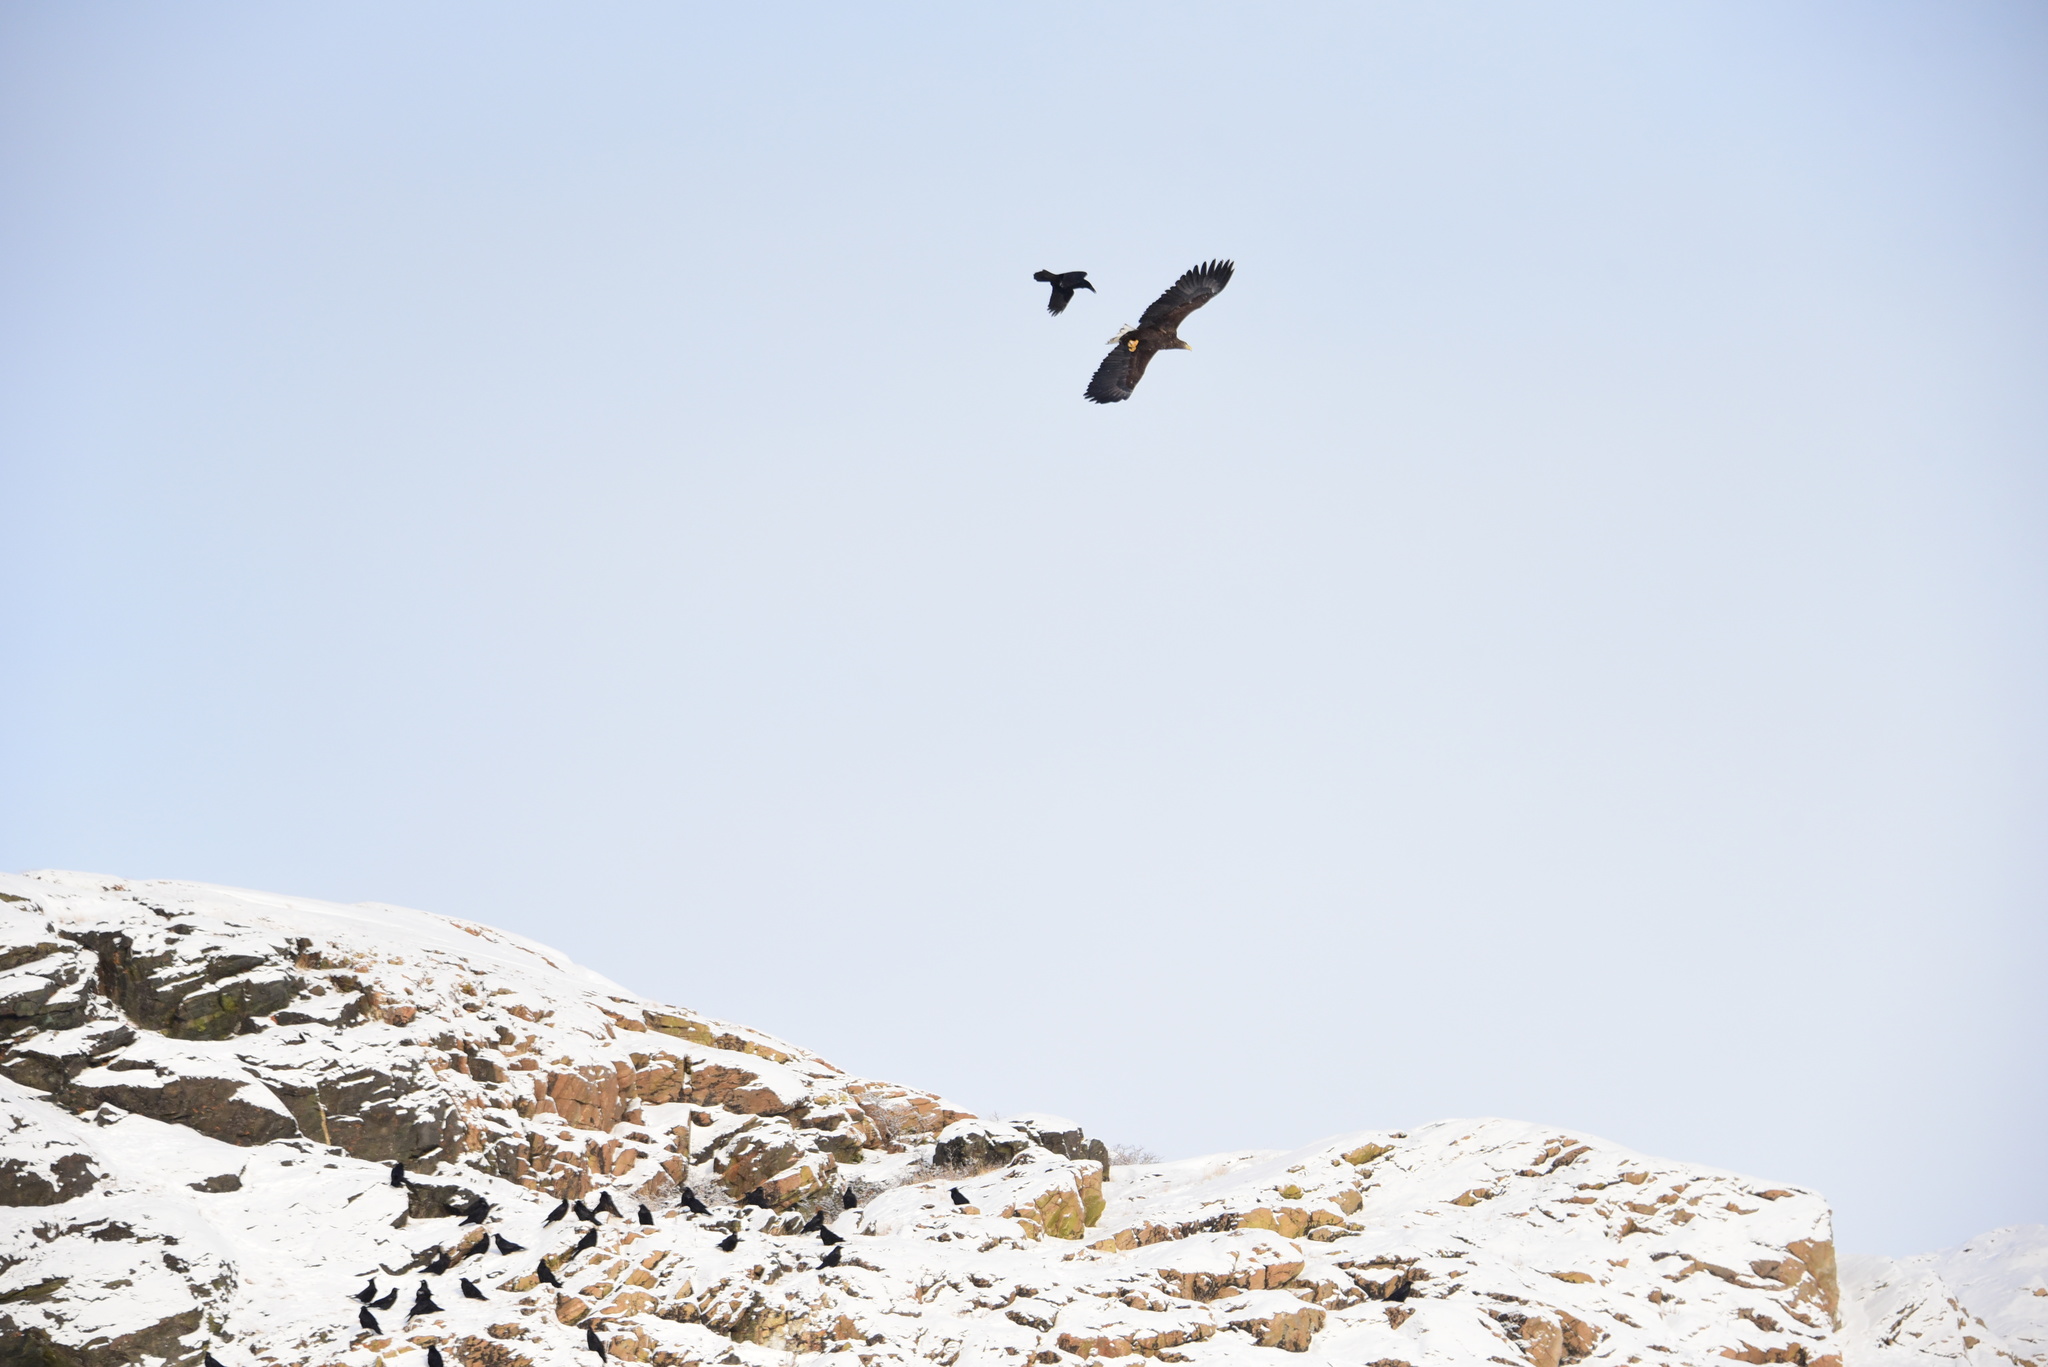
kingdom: Animalia
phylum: Chordata
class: Aves
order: Accipitriformes
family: Accipitridae
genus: Haliaeetus
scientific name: Haliaeetus albicilla
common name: White-tailed eagle
